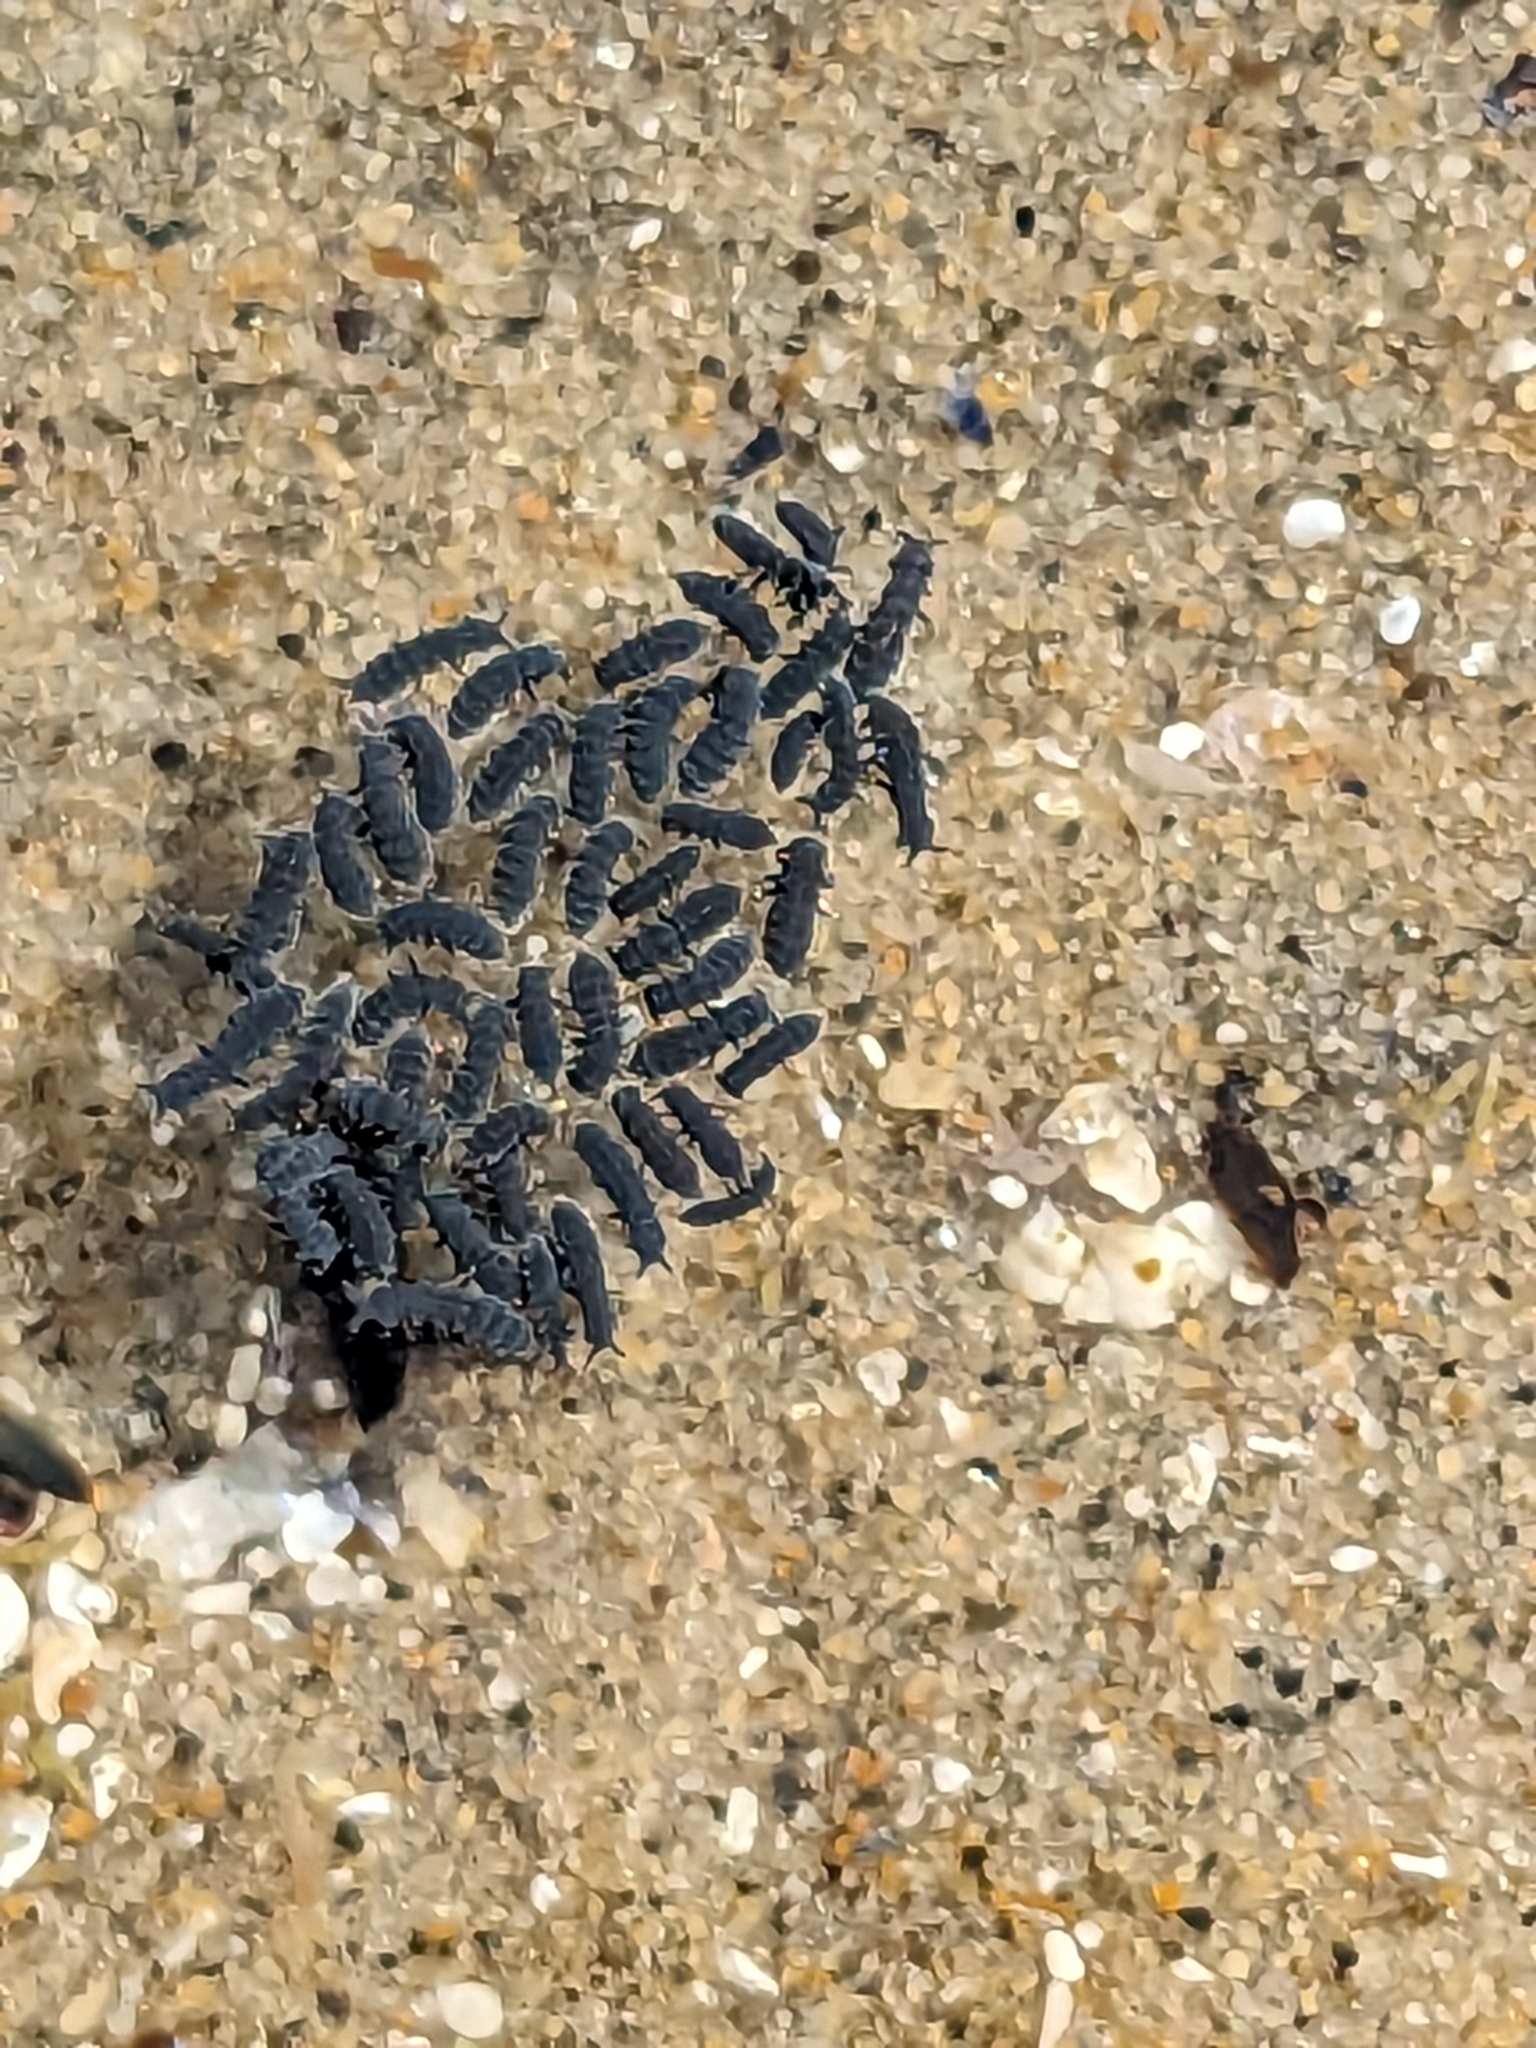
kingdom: Animalia
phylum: Arthropoda
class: Collembola
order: Poduromorpha
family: Neanuridae
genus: Anurida
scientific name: Anurida maritima
